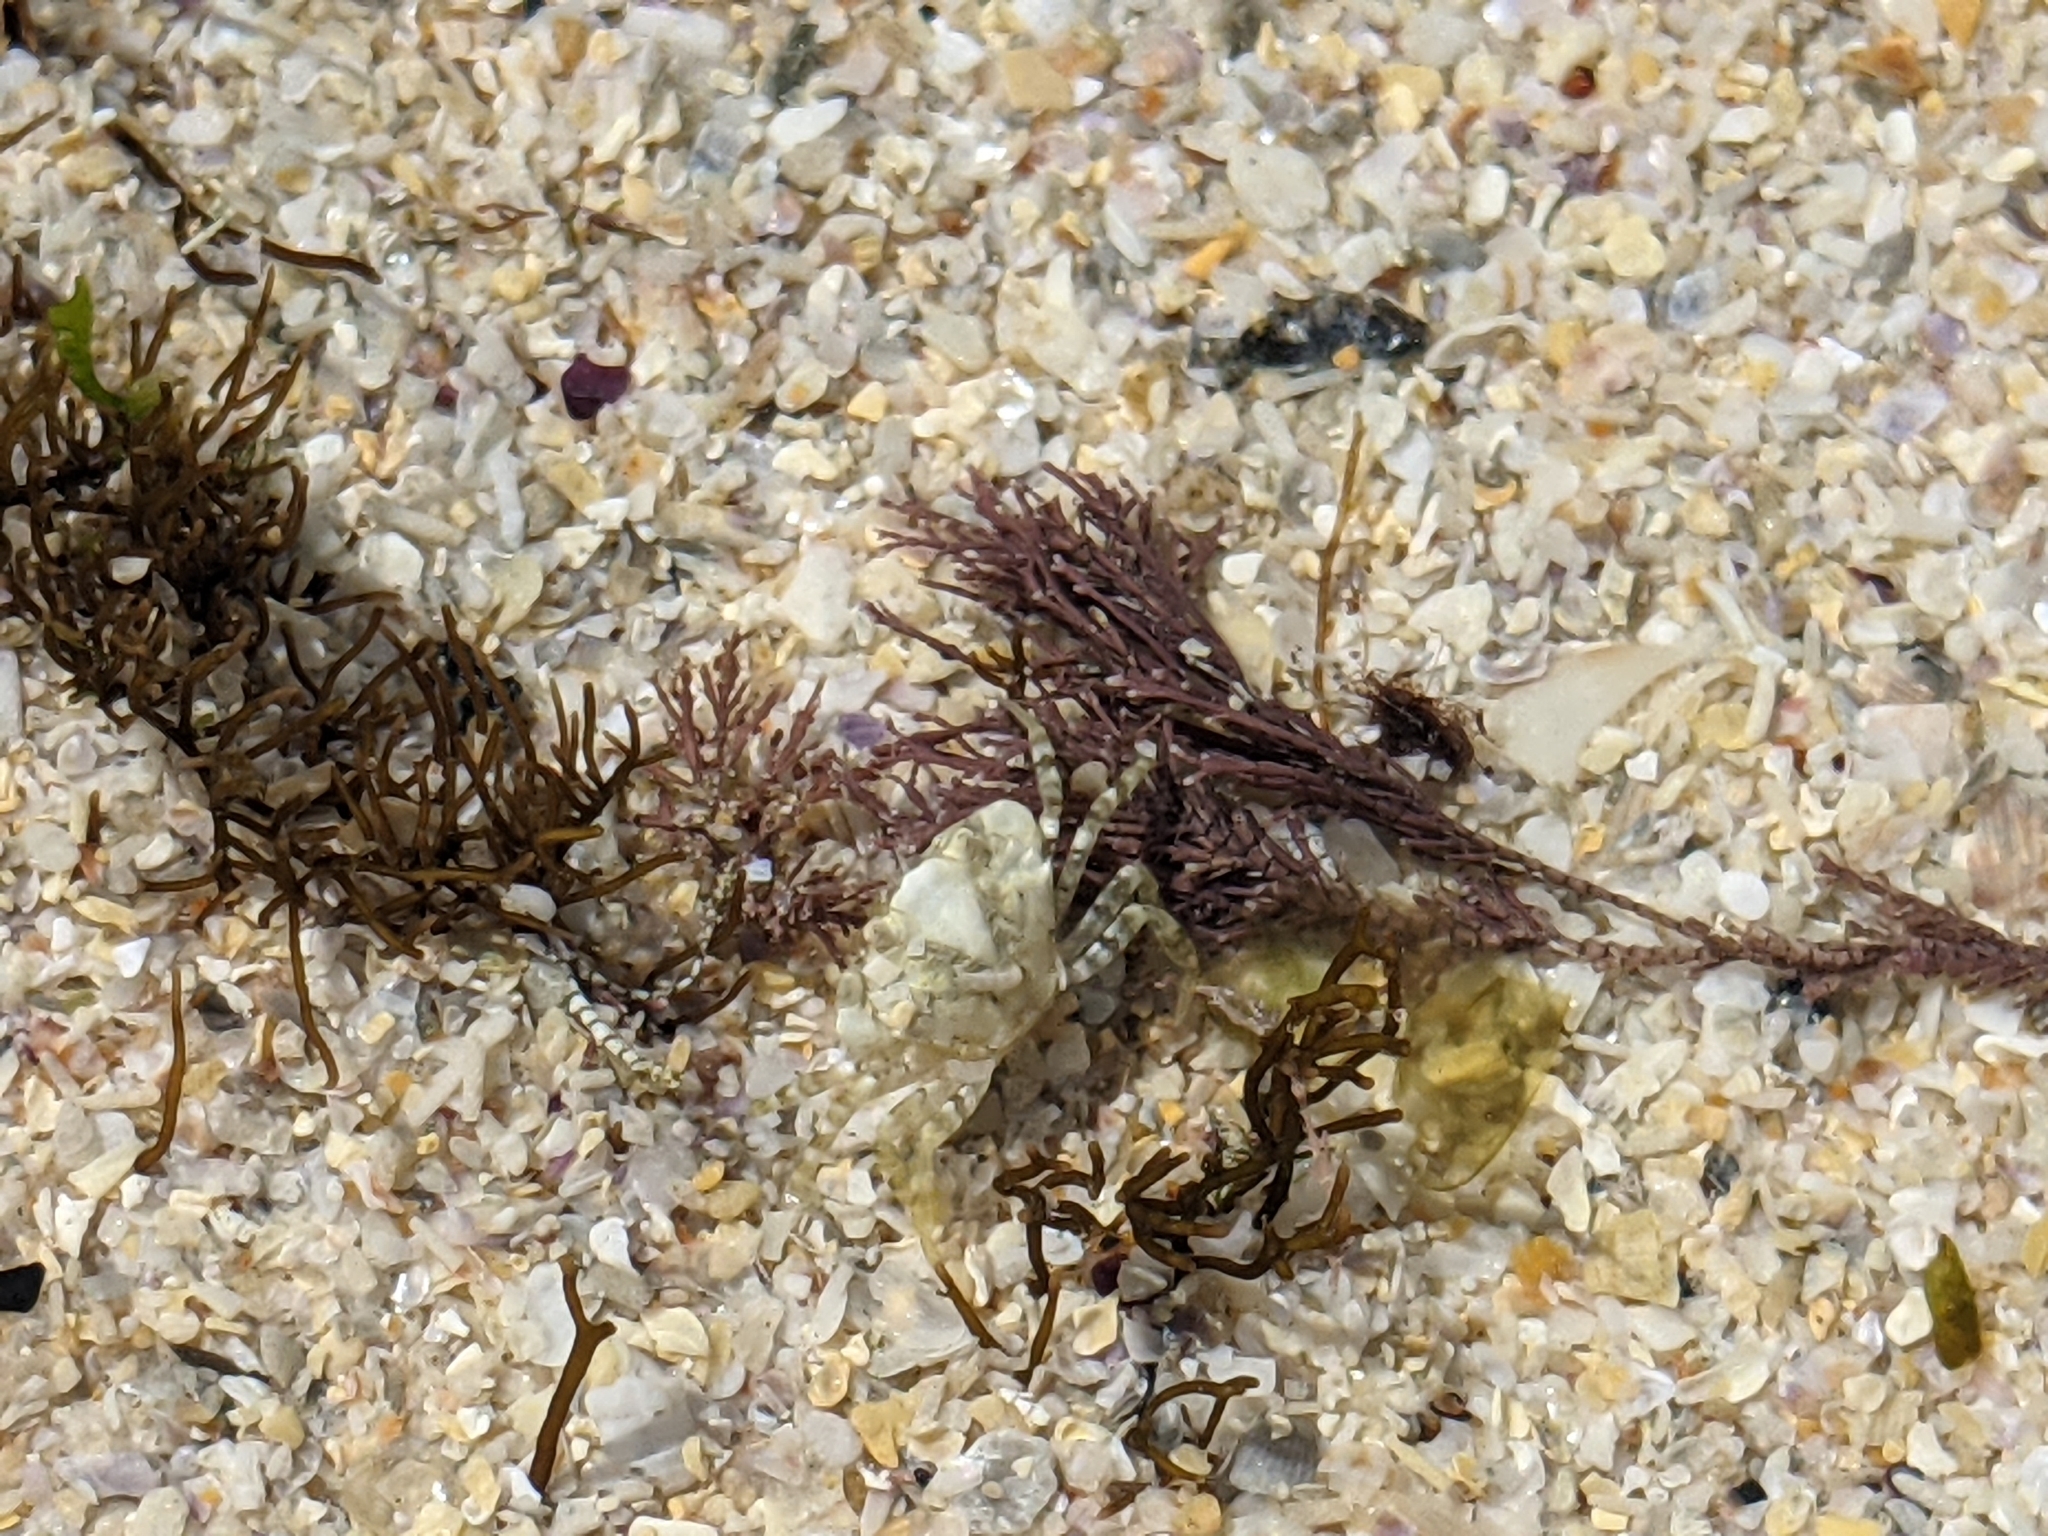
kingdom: Animalia
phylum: Arthropoda
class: Malacostraca
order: Decapoda
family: Carcinidae
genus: Carcinus
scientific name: Carcinus maenas
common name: European green crab
